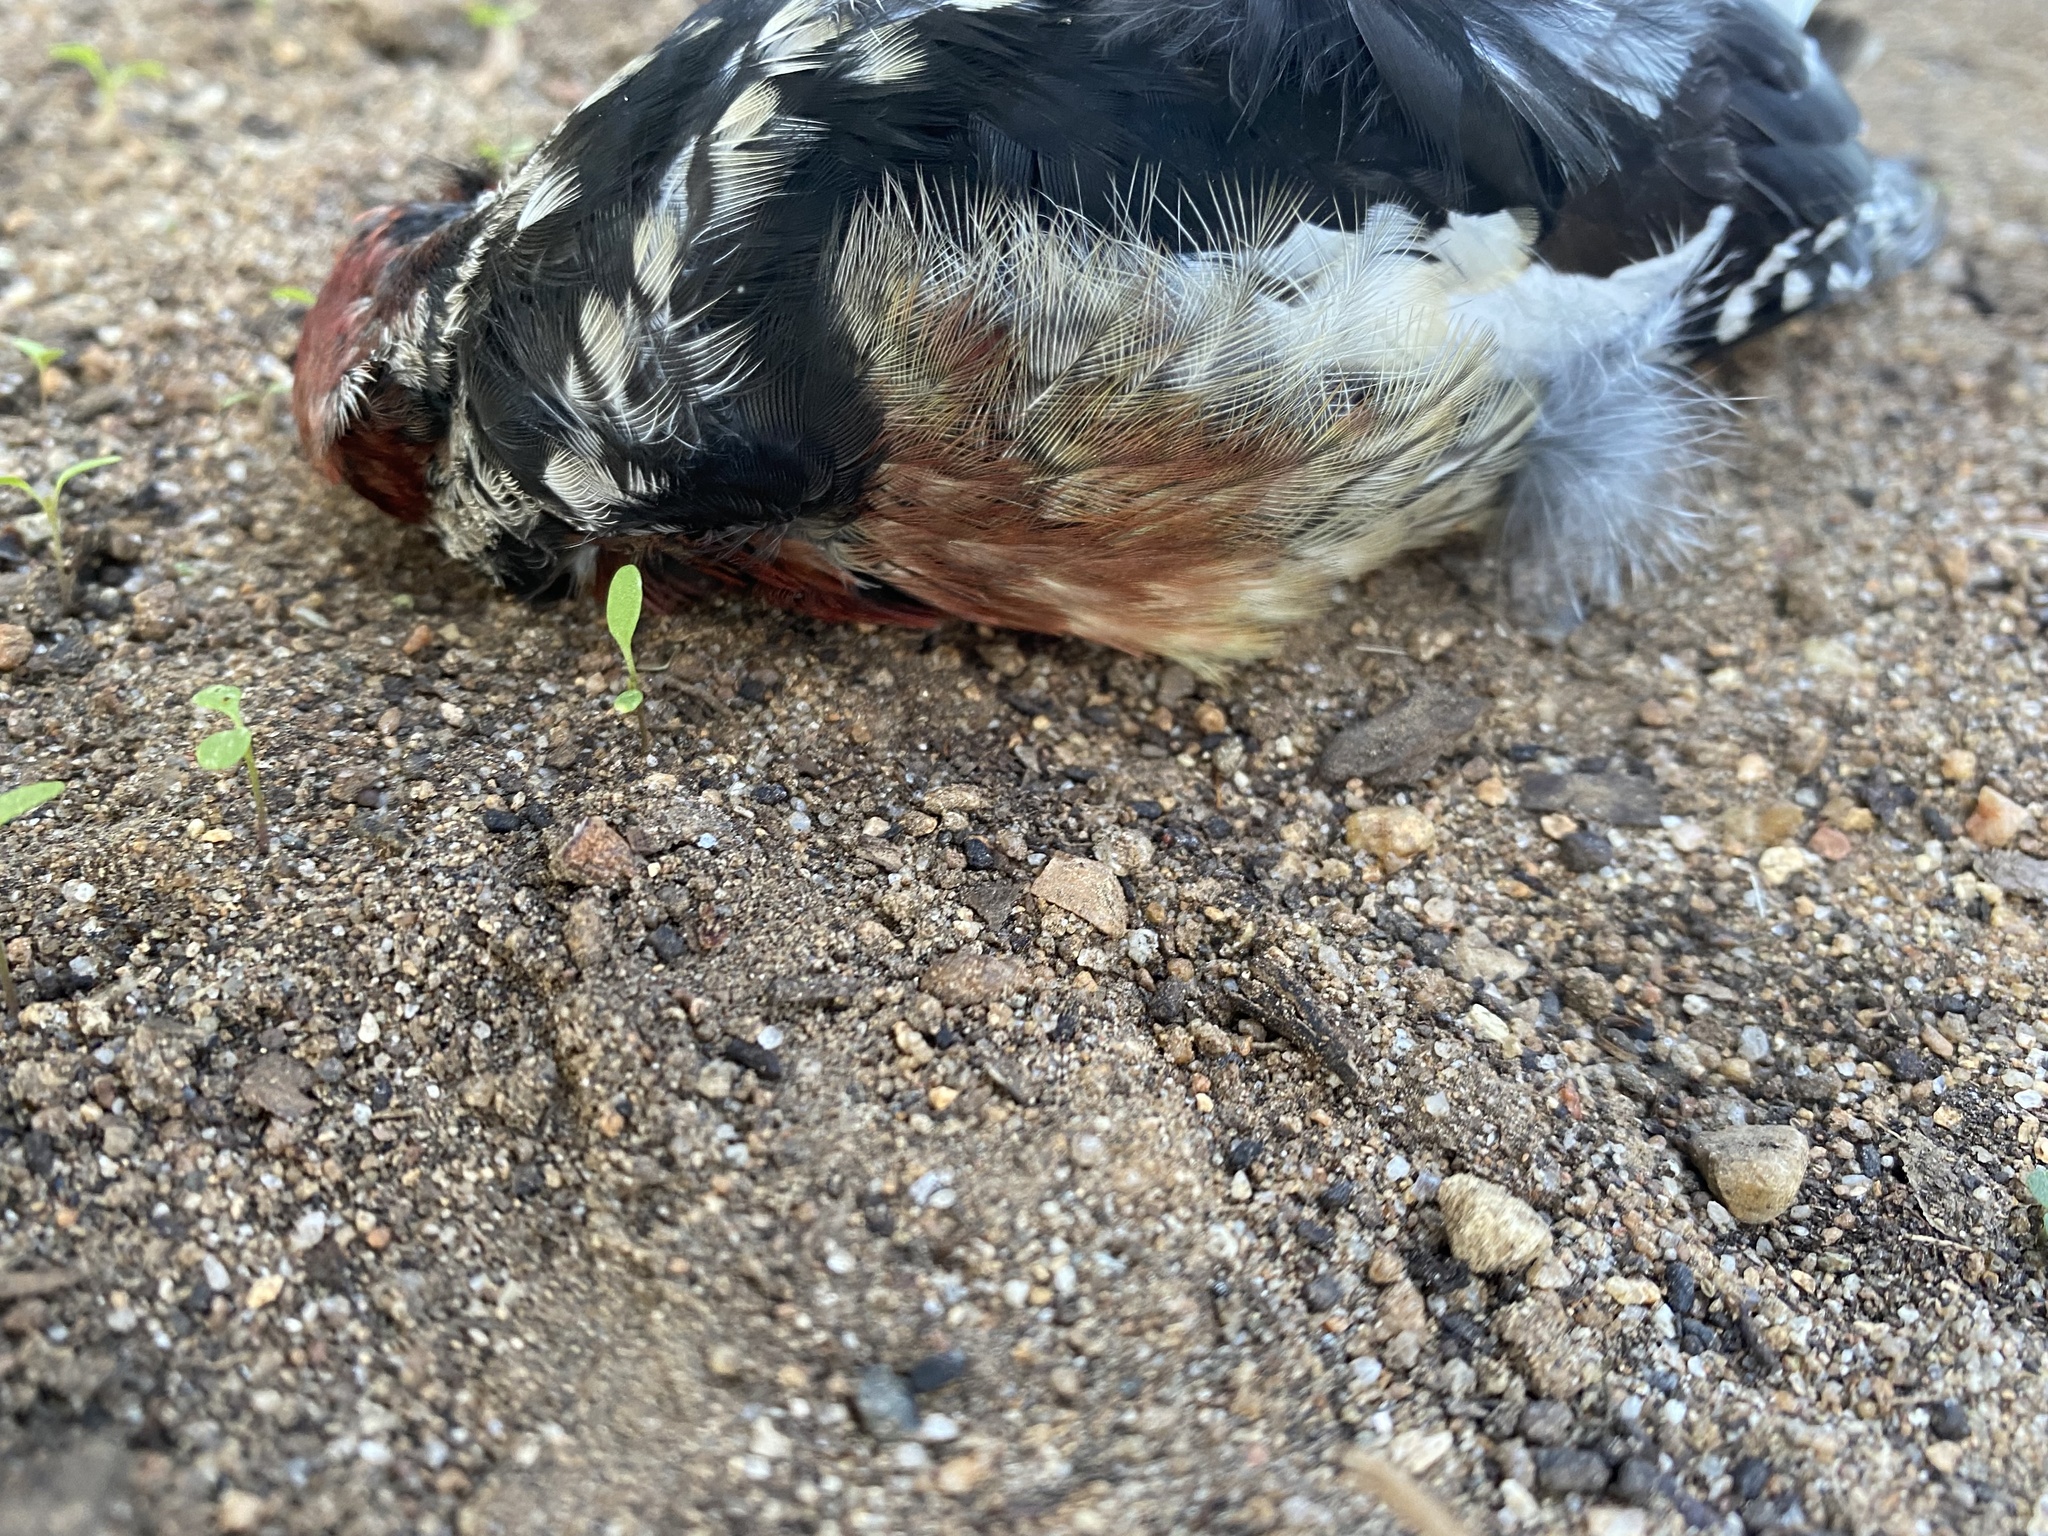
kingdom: Animalia
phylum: Chordata
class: Aves
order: Piciformes
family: Picidae
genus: Sphyrapicus
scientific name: Sphyrapicus ruber
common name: Red-breasted sapsucker
